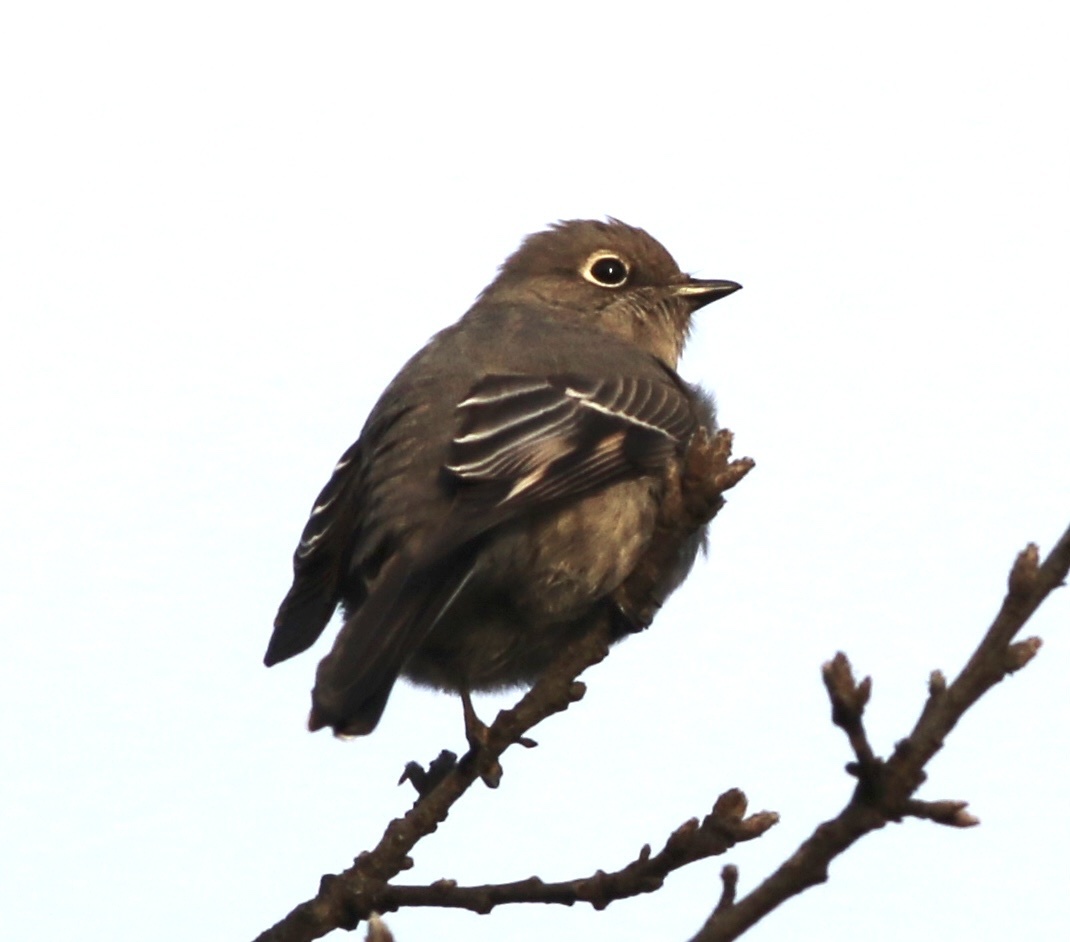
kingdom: Animalia
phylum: Chordata
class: Aves
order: Passeriformes
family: Turdidae
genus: Myadestes
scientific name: Myadestes townsendi
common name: Townsend's solitaire
